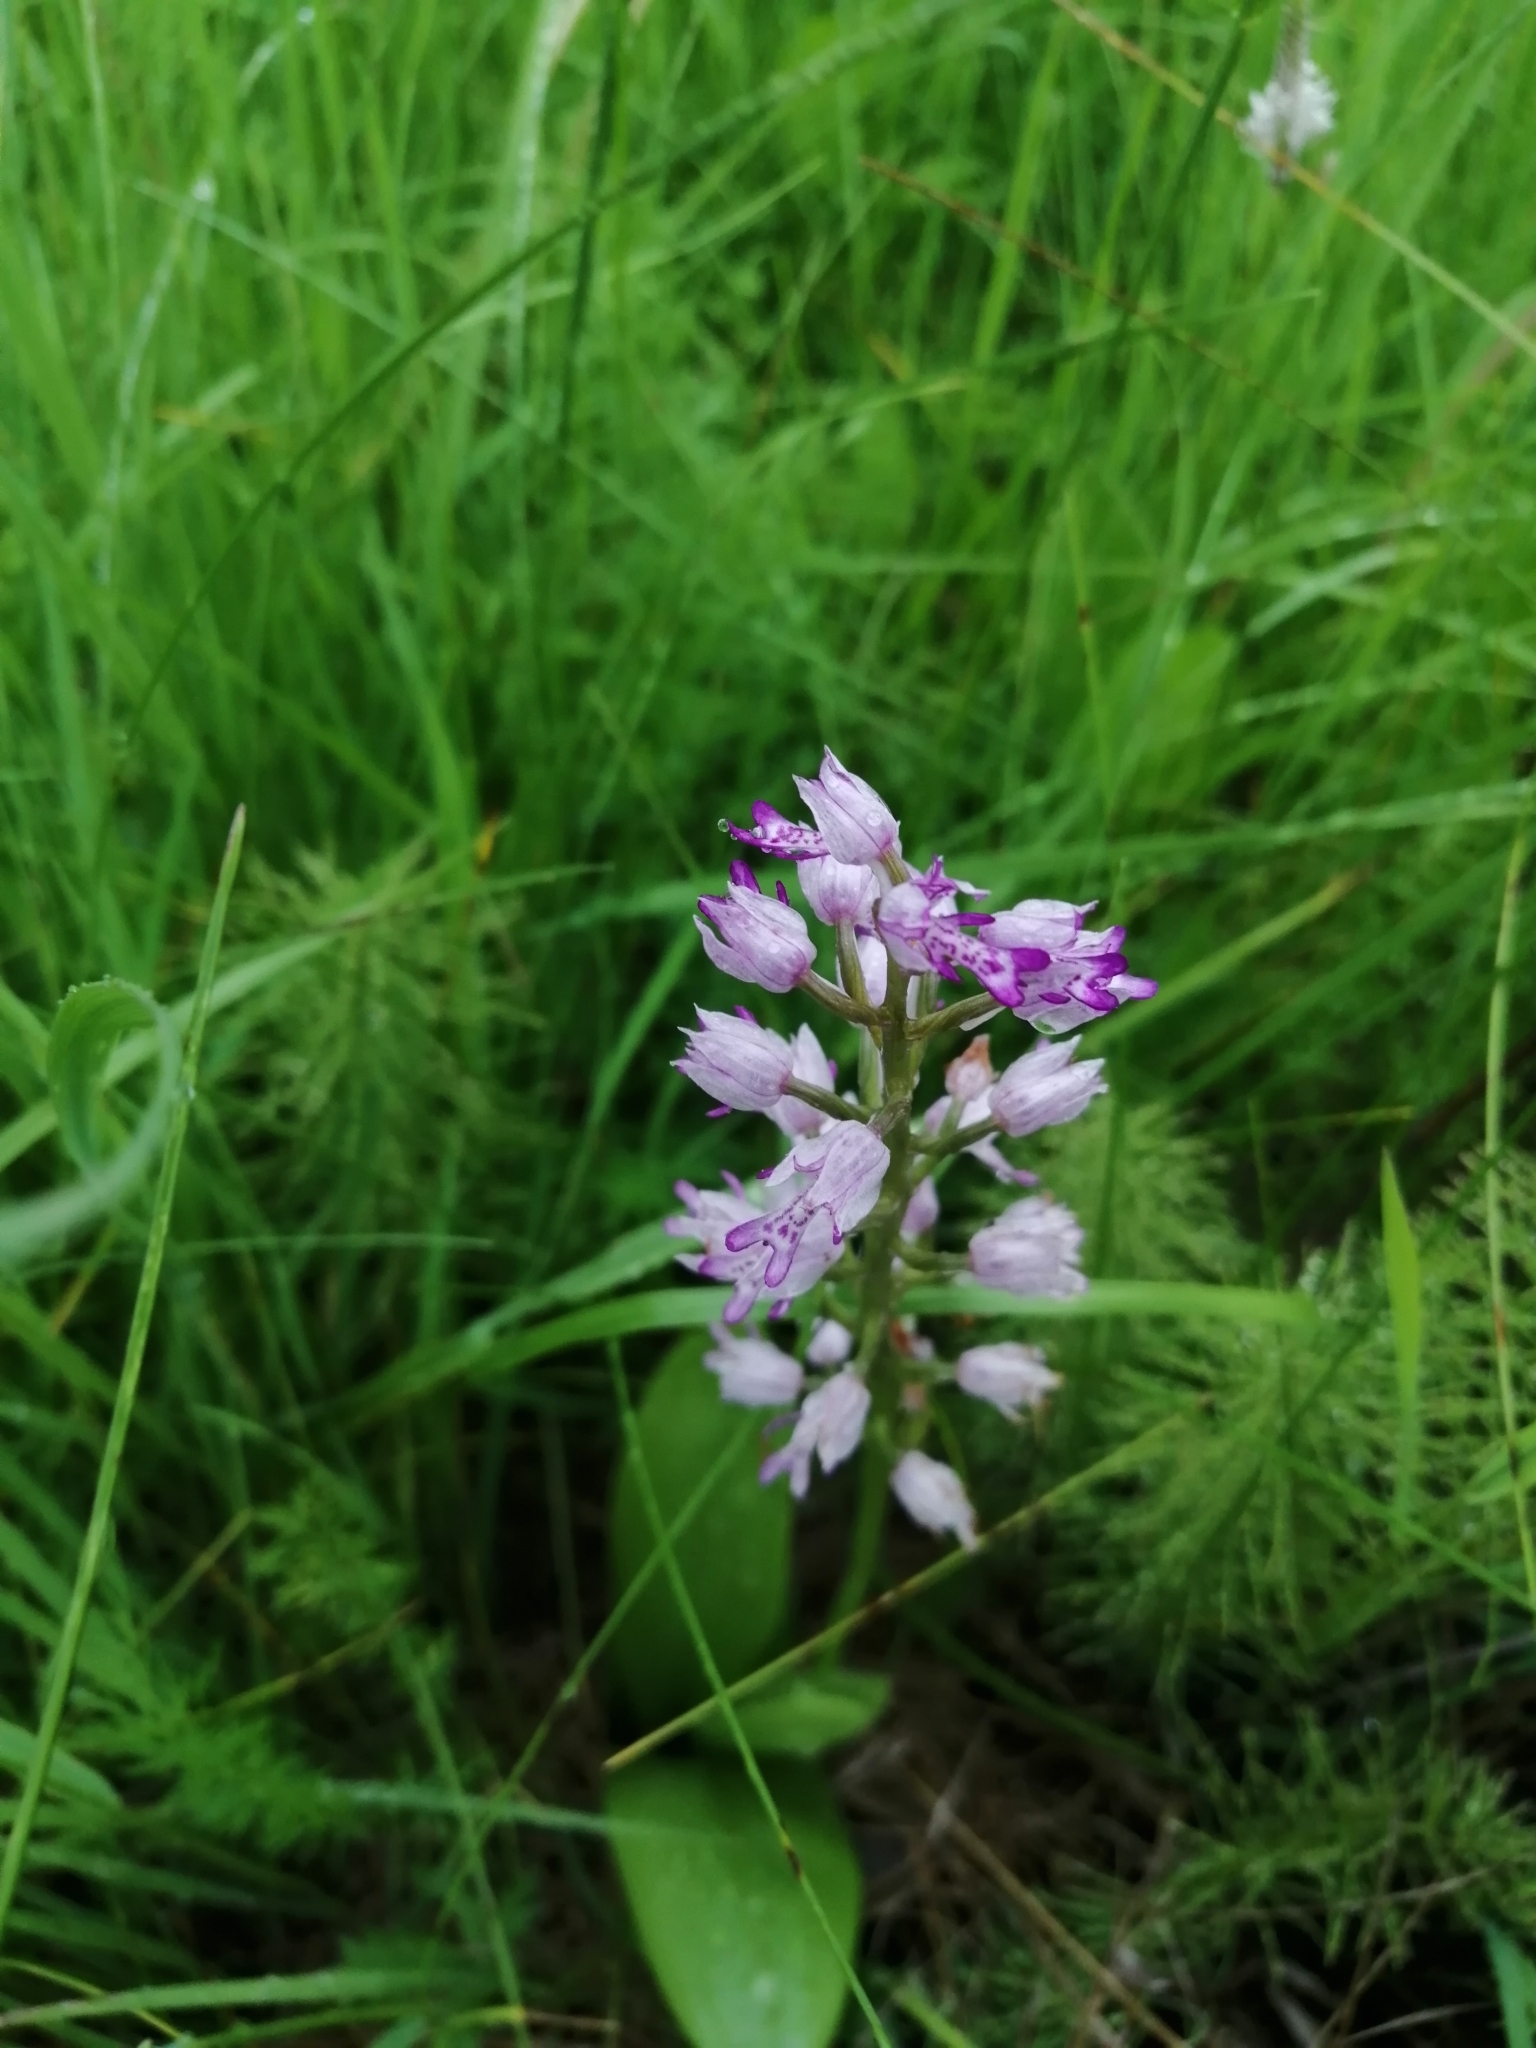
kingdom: Plantae
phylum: Tracheophyta
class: Liliopsida
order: Asparagales
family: Orchidaceae
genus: Orchis
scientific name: Orchis militaris
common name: Military orchid
